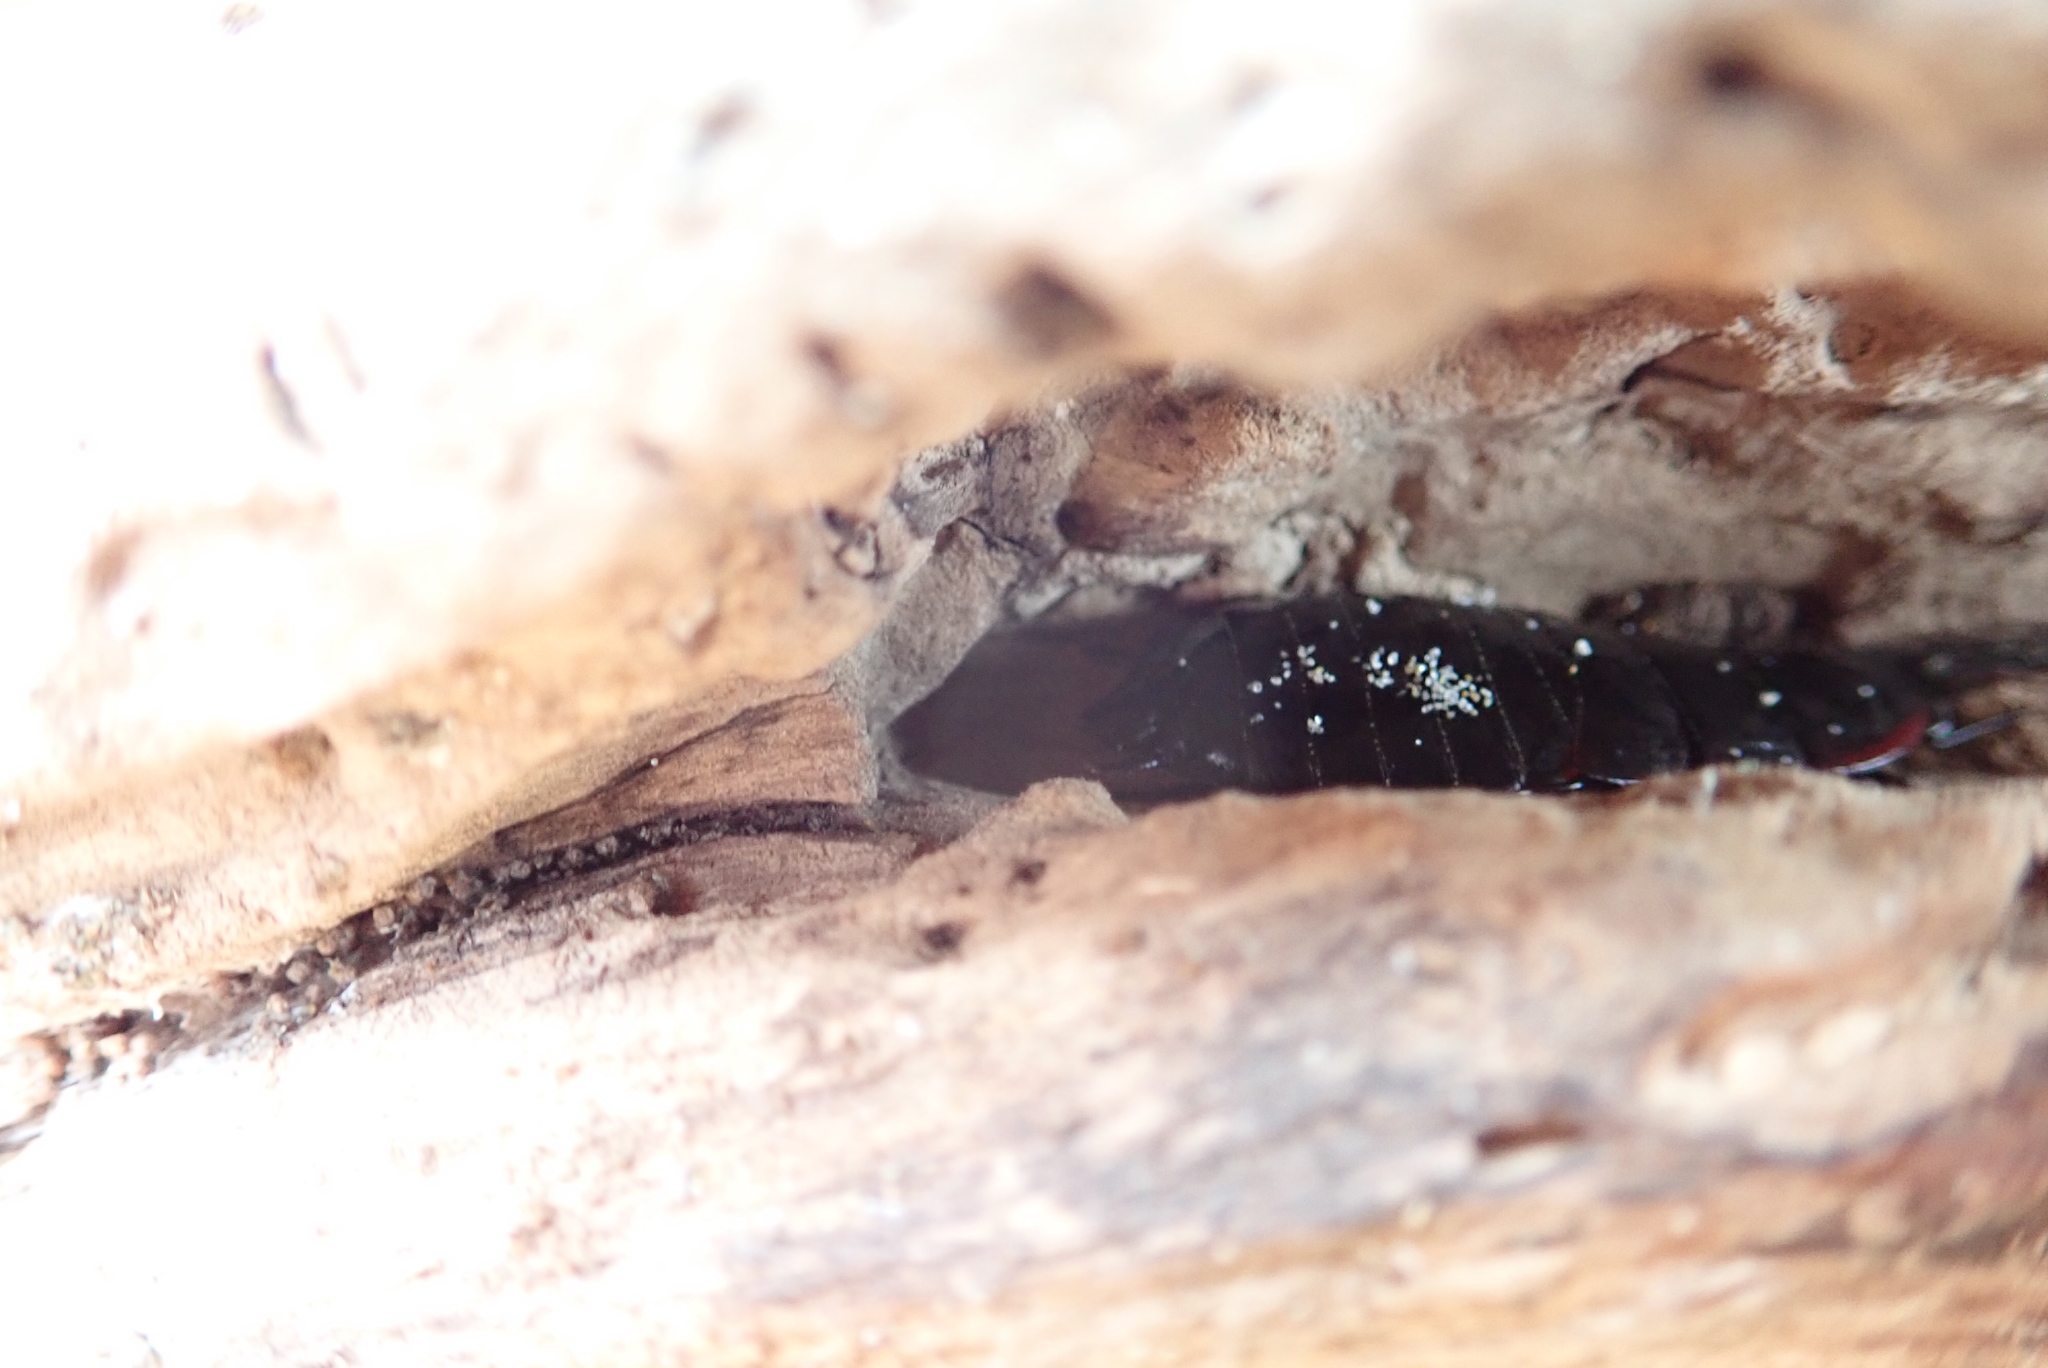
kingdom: Animalia
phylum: Arthropoda
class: Insecta
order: Blattodea
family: Blattidae
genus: Maoriblatta
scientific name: Maoriblatta novaeseelandiae
